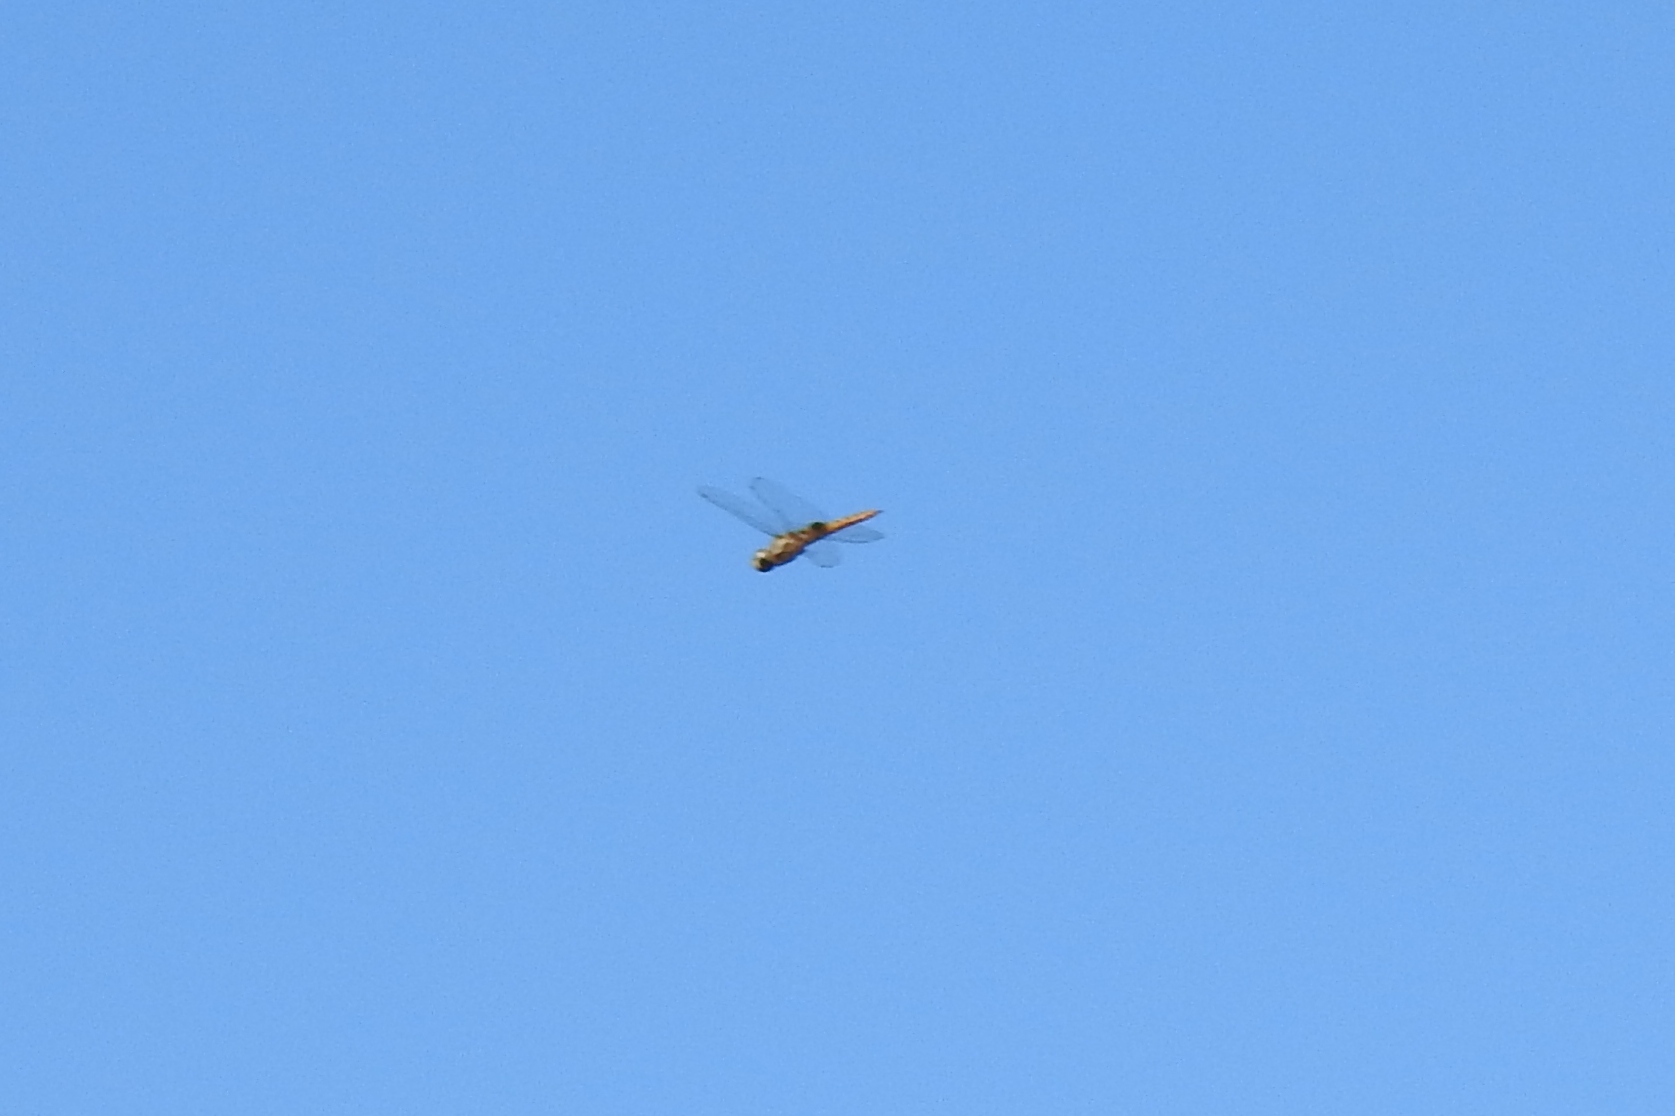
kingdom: Animalia
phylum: Arthropoda
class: Insecta
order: Odonata
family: Libellulidae
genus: Pantala
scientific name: Pantala hymenaea
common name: Spot-winged glider
